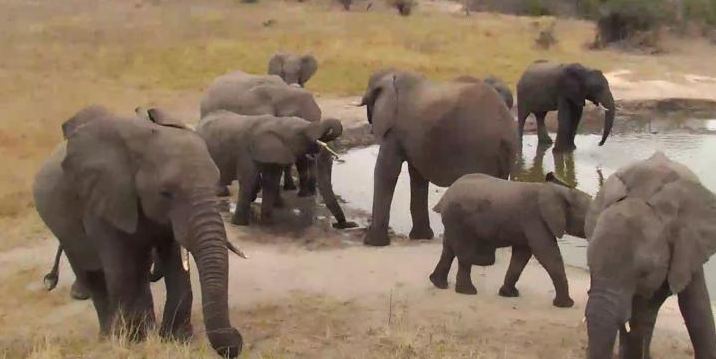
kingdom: Animalia
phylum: Chordata
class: Mammalia
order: Proboscidea
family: Elephantidae
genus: Loxodonta
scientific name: Loxodonta africana
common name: African elephant
